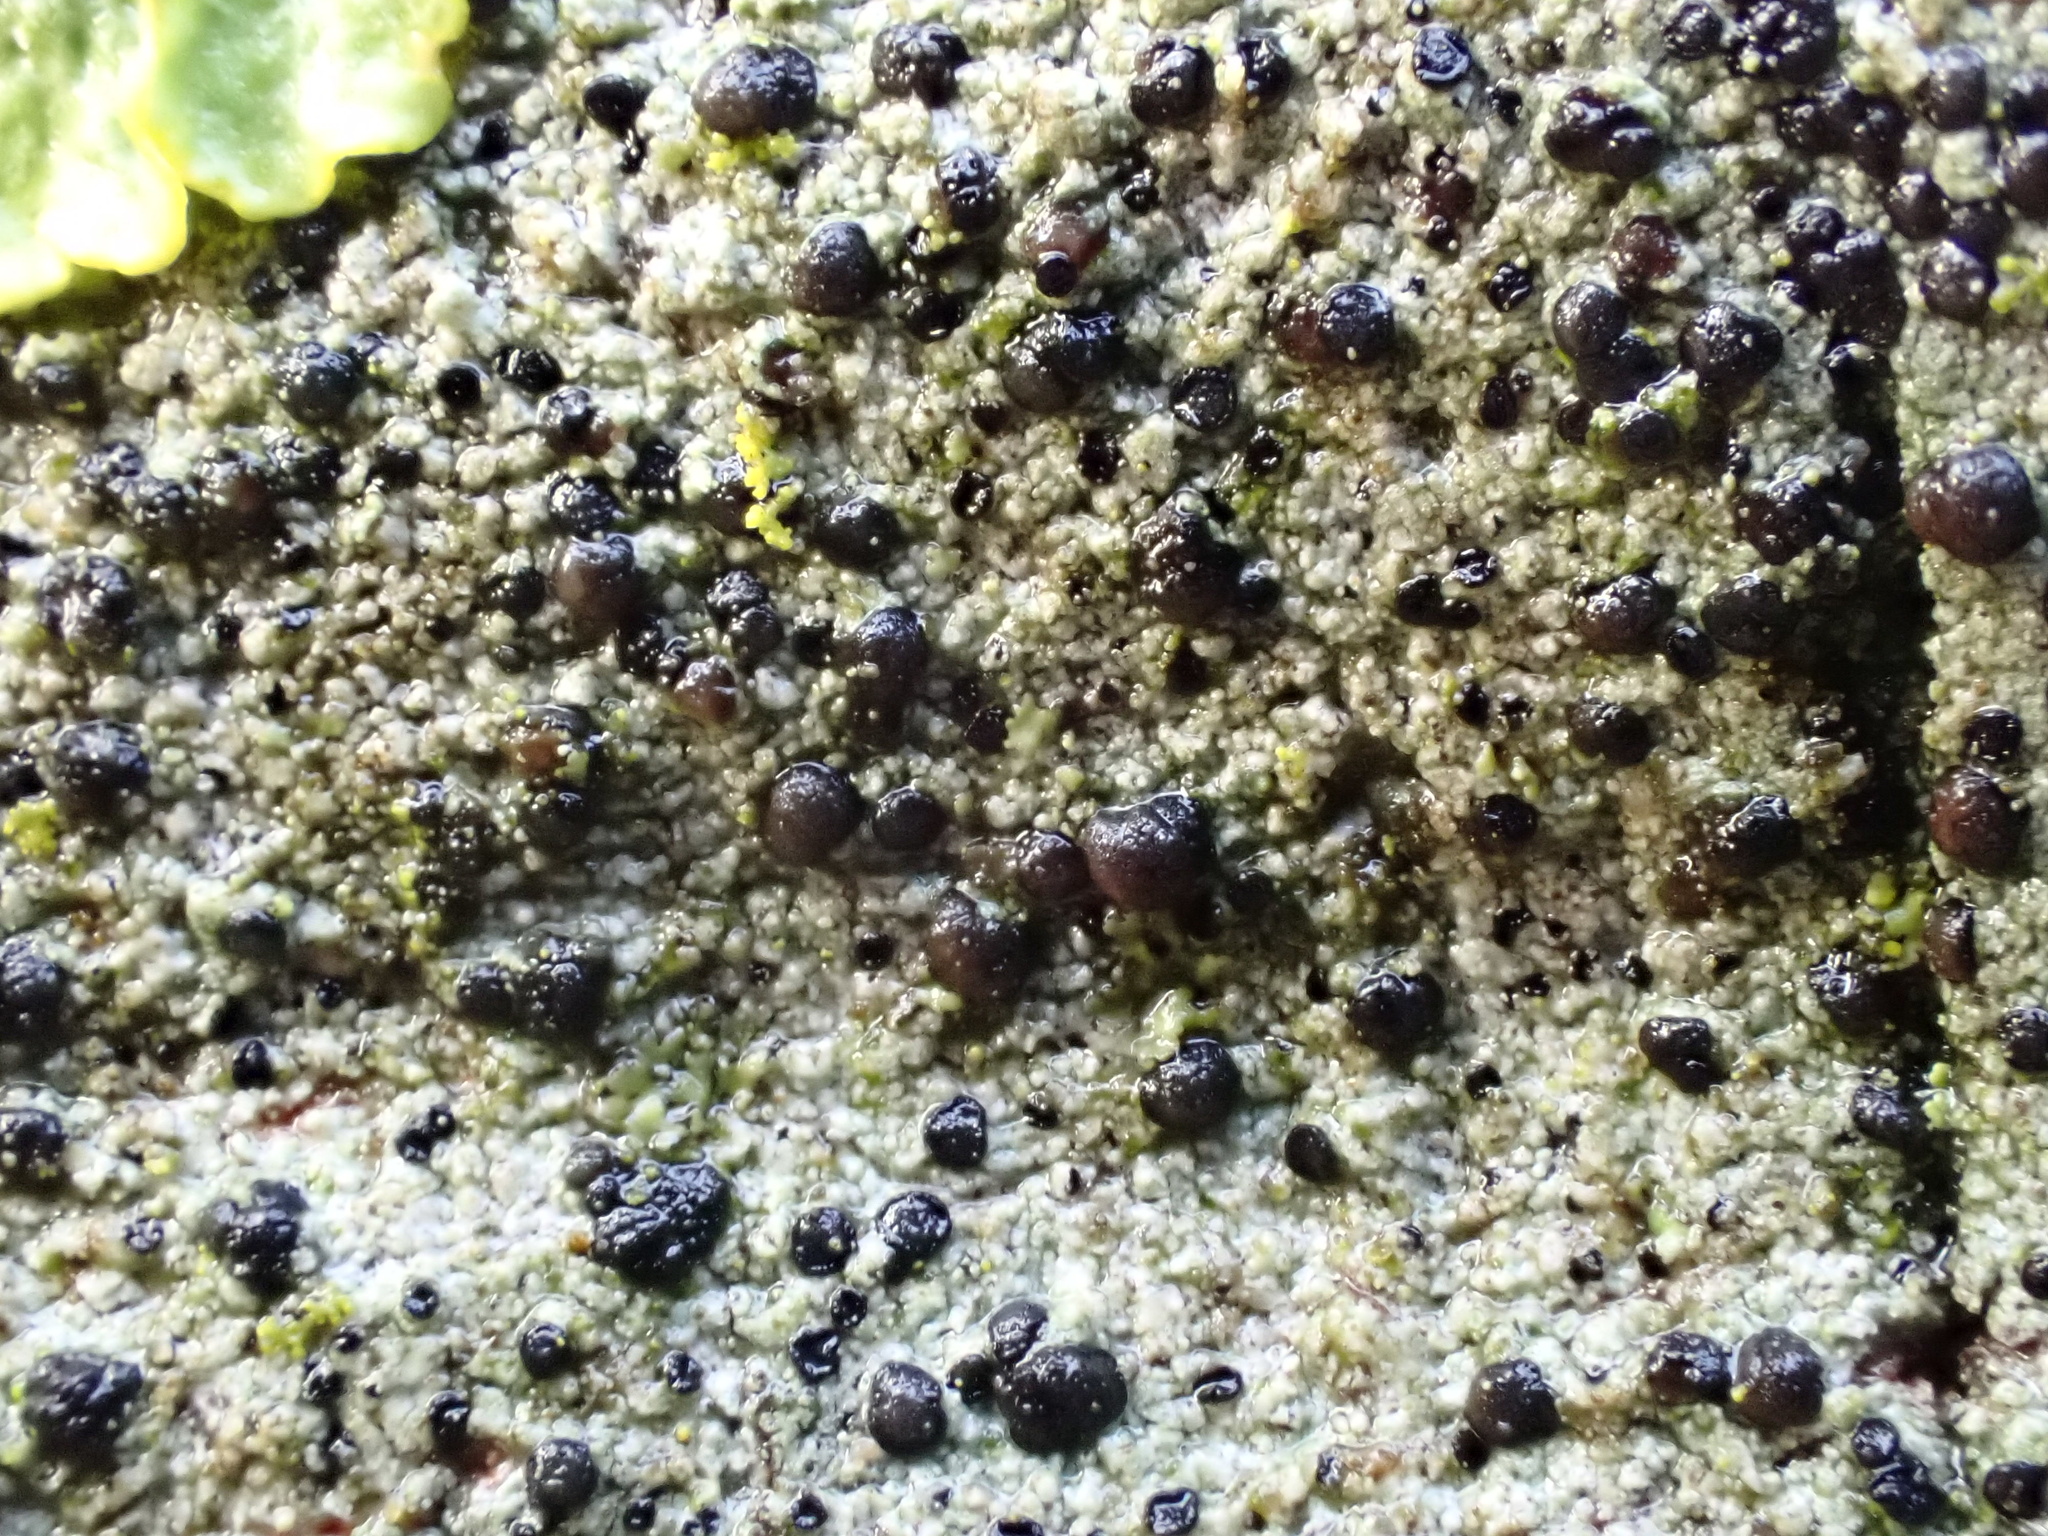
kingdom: Fungi
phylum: Ascomycota
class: Lecanoromycetes
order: Lecanorales
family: Lecanoraceae
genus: Lecidella
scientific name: Lecidella elaeochroma
